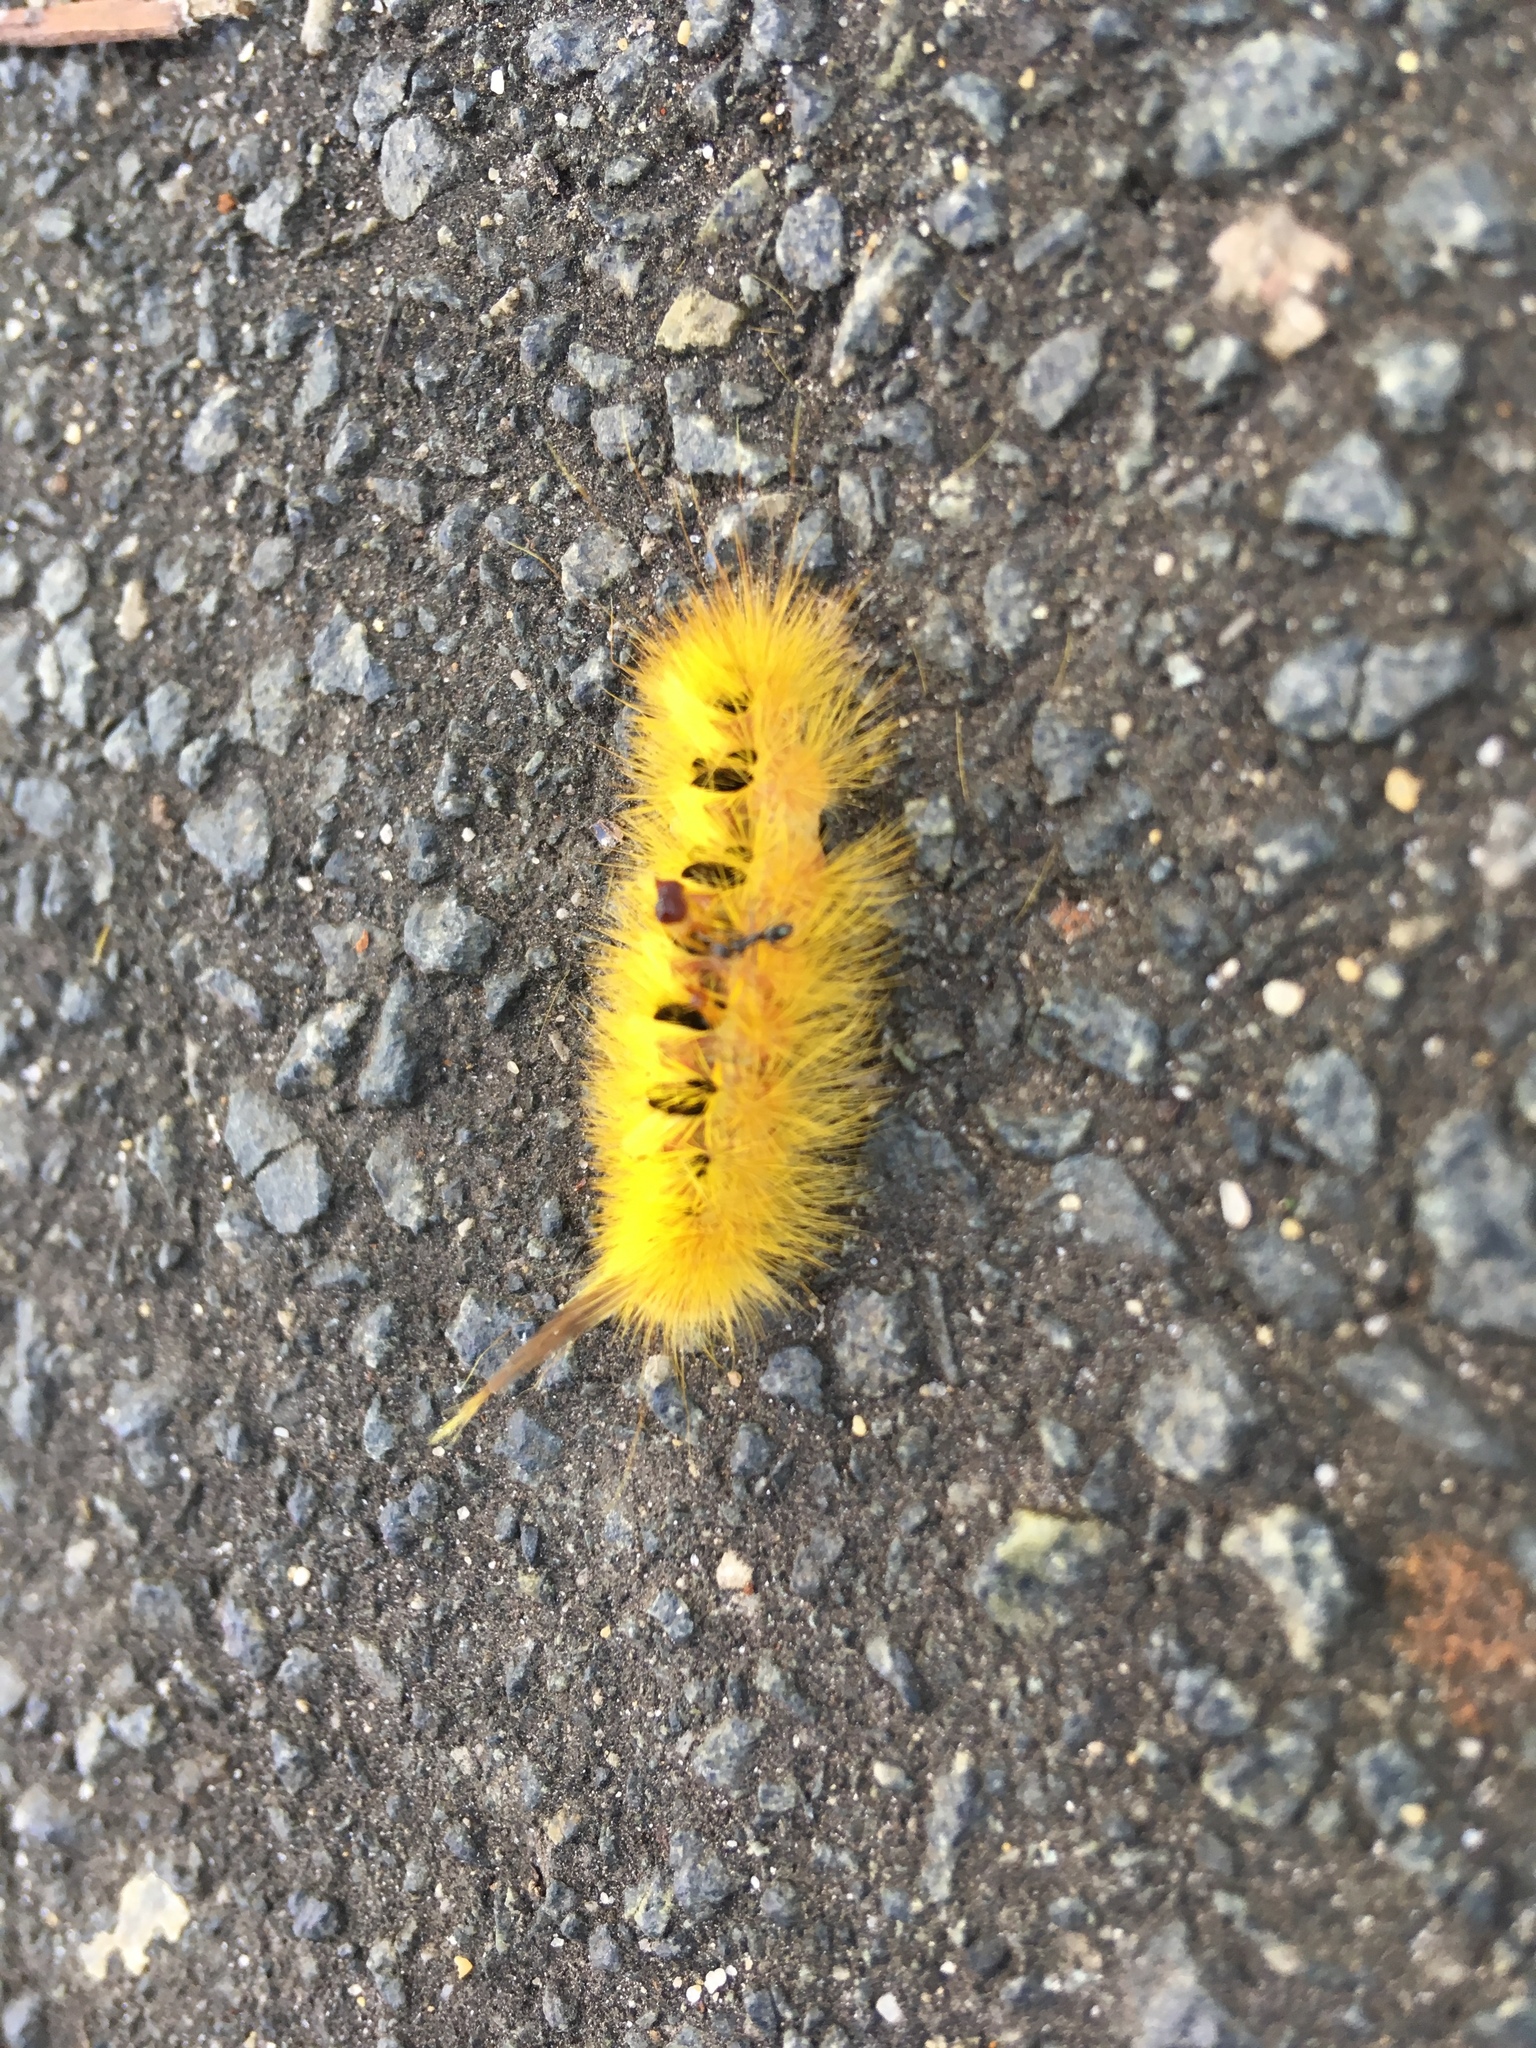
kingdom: Animalia
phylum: Arthropoda
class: Insecta
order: Lepidoptera
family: Notodontidae
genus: Trichiocercus
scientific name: Trichiocercus sparshalli
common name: Long-tailed satin
